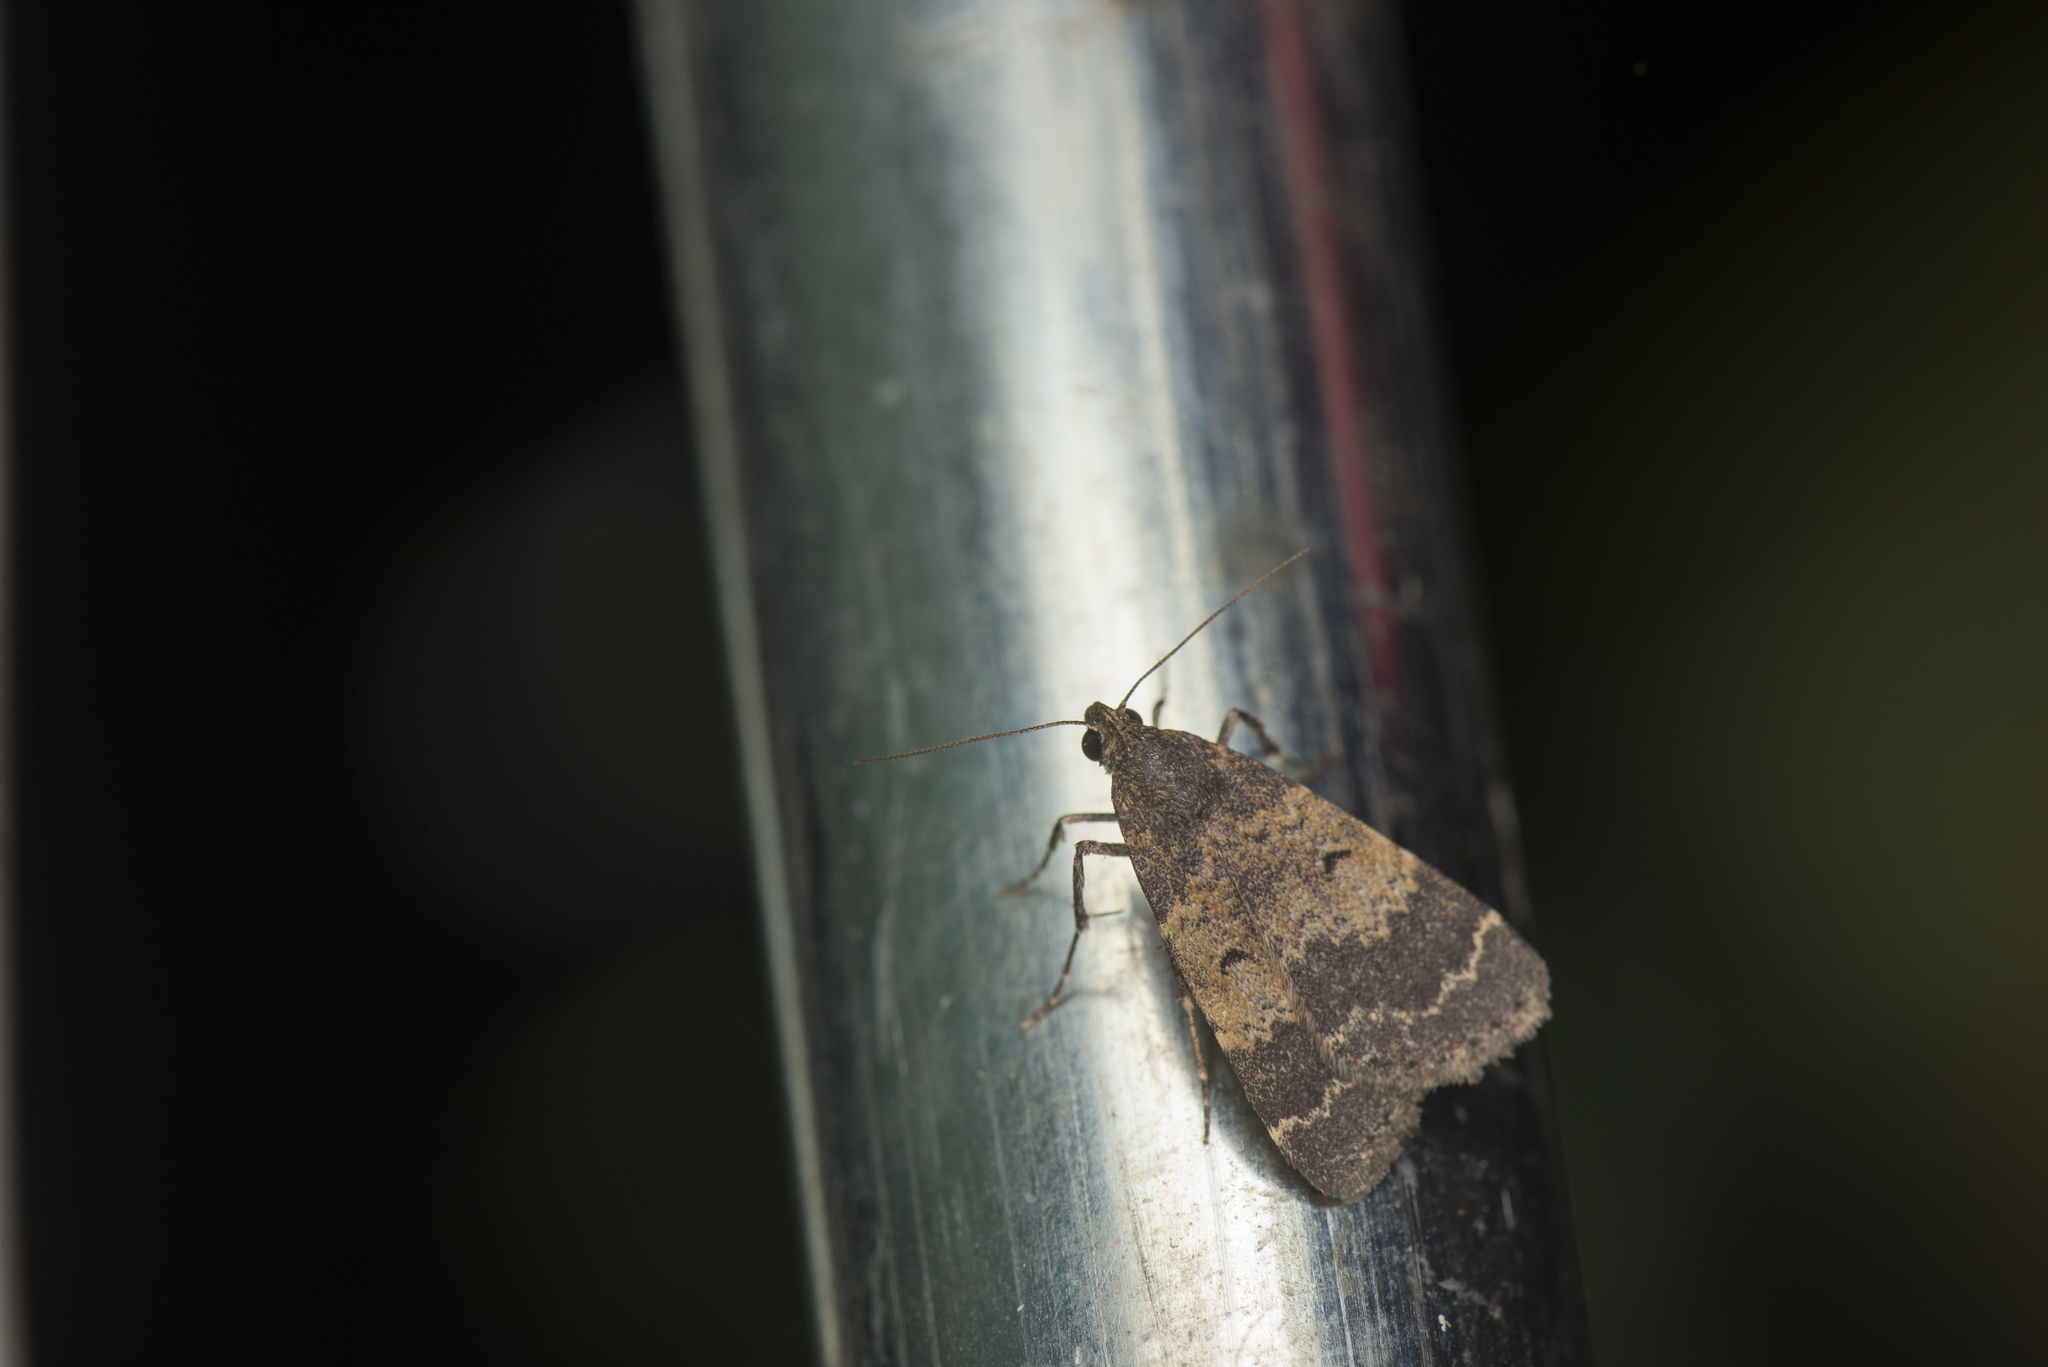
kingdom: Animalia
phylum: Arthropoda
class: Insecta
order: Lepidoptera
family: Erebidae
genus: Hydrillodes
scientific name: Hydrillodes lentalis
